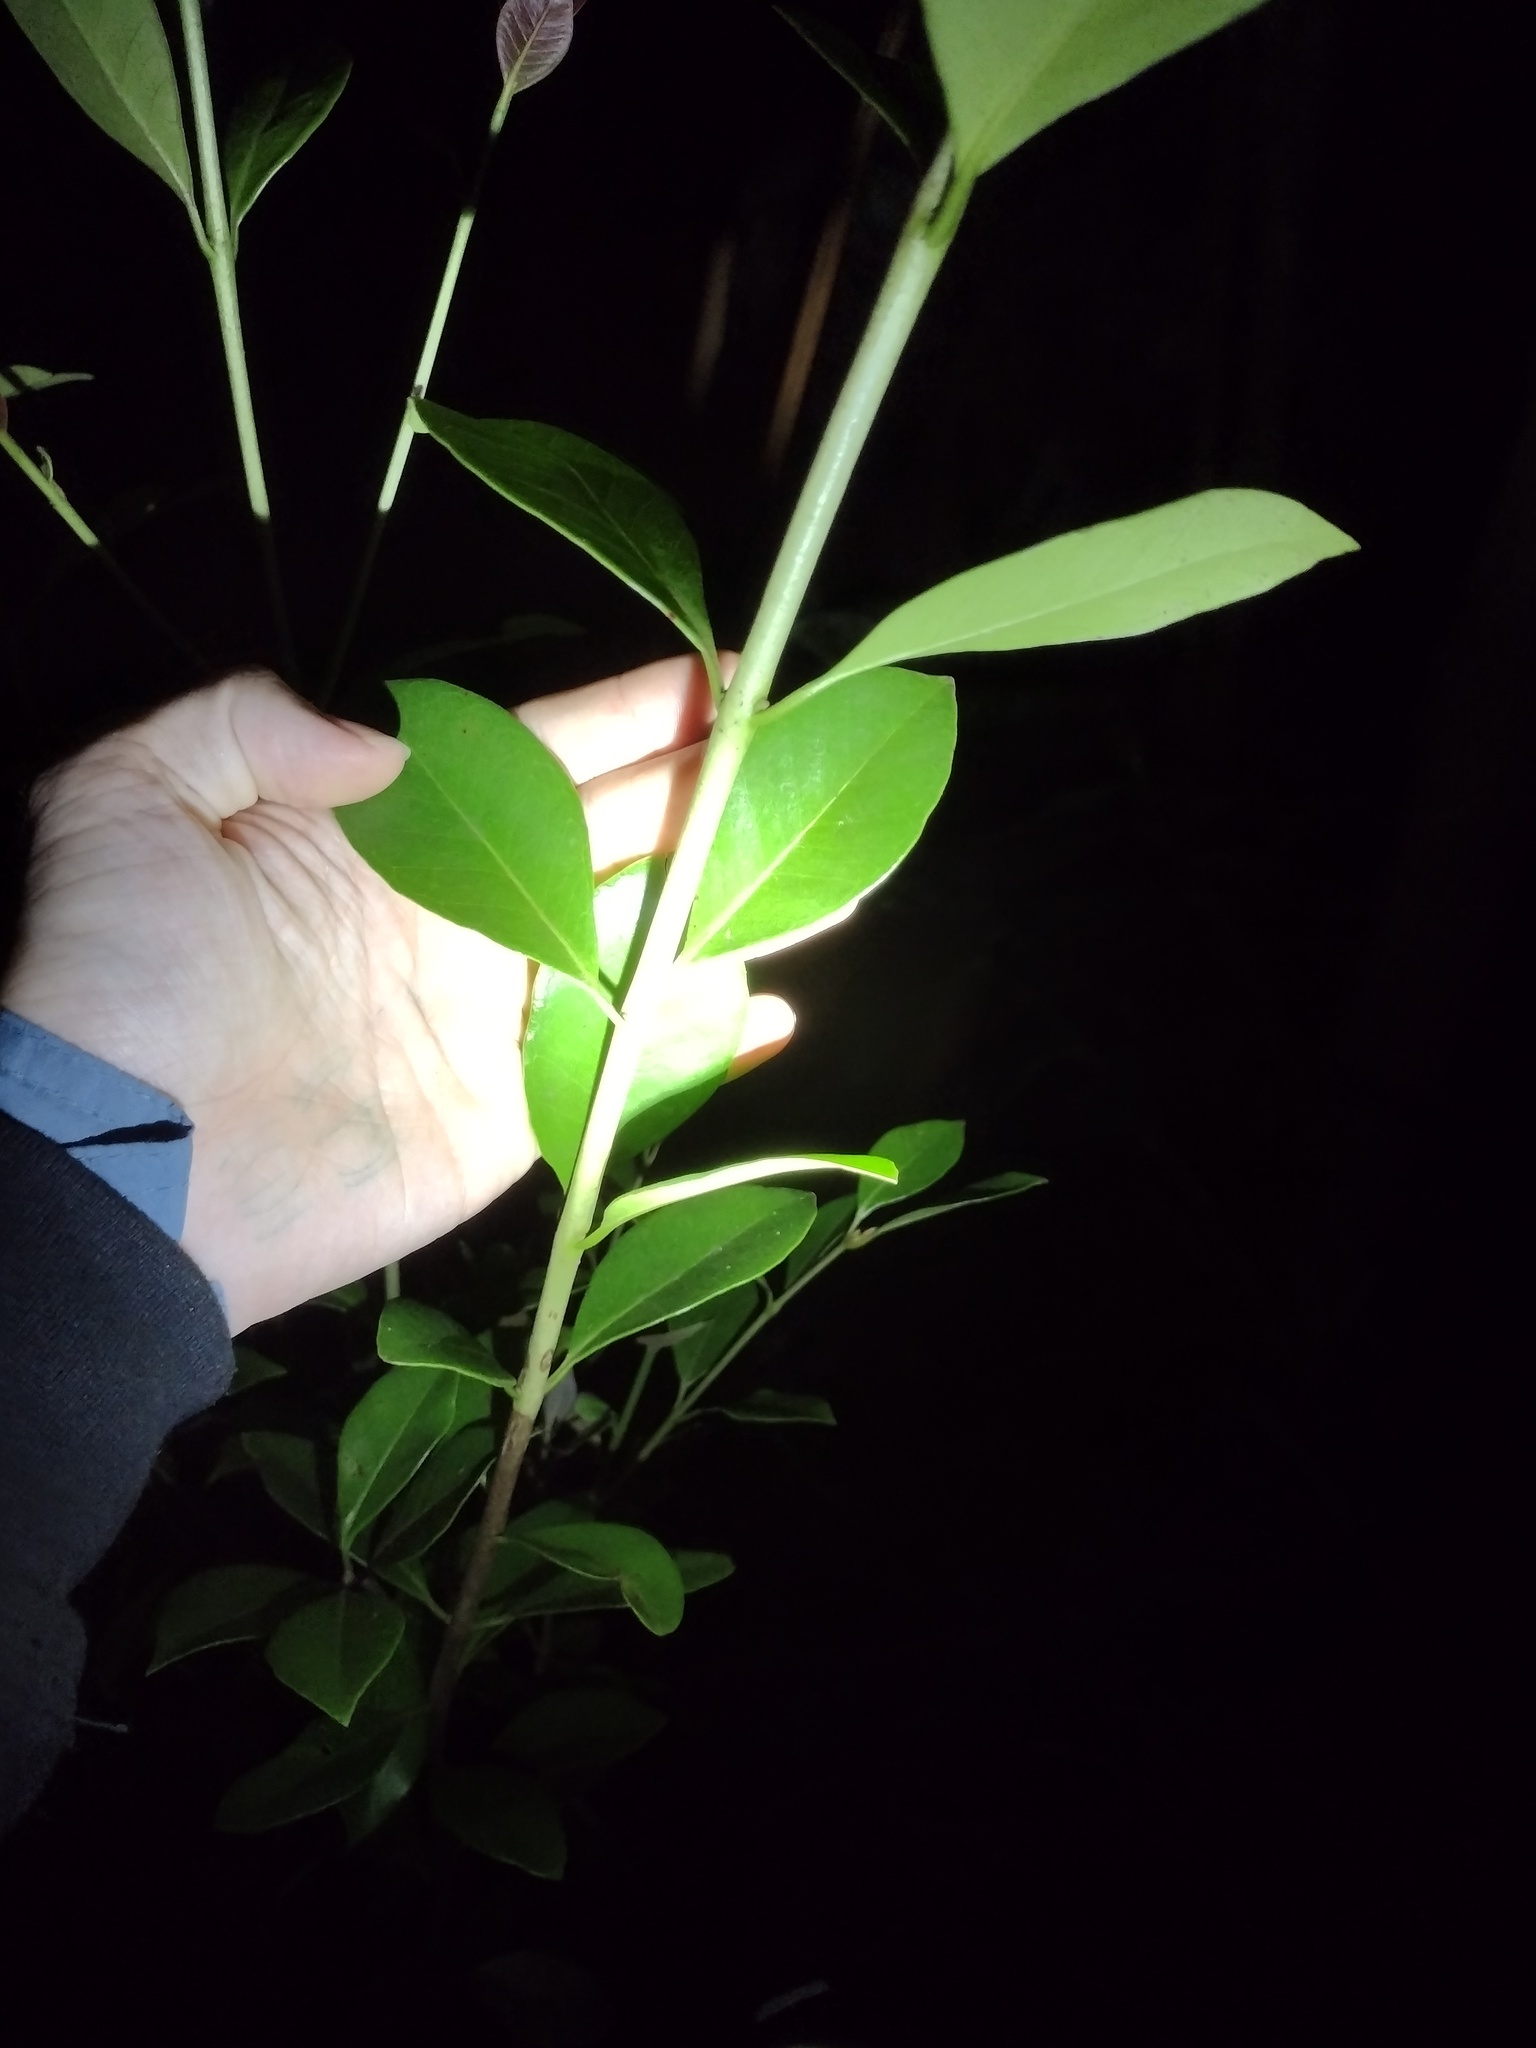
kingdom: Plantae
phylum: Tracheophyta
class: Magnoliopsida
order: Myrtales
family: Myrtaceae
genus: Psidium
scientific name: Psidium cattleianum
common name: Strawberry guava
